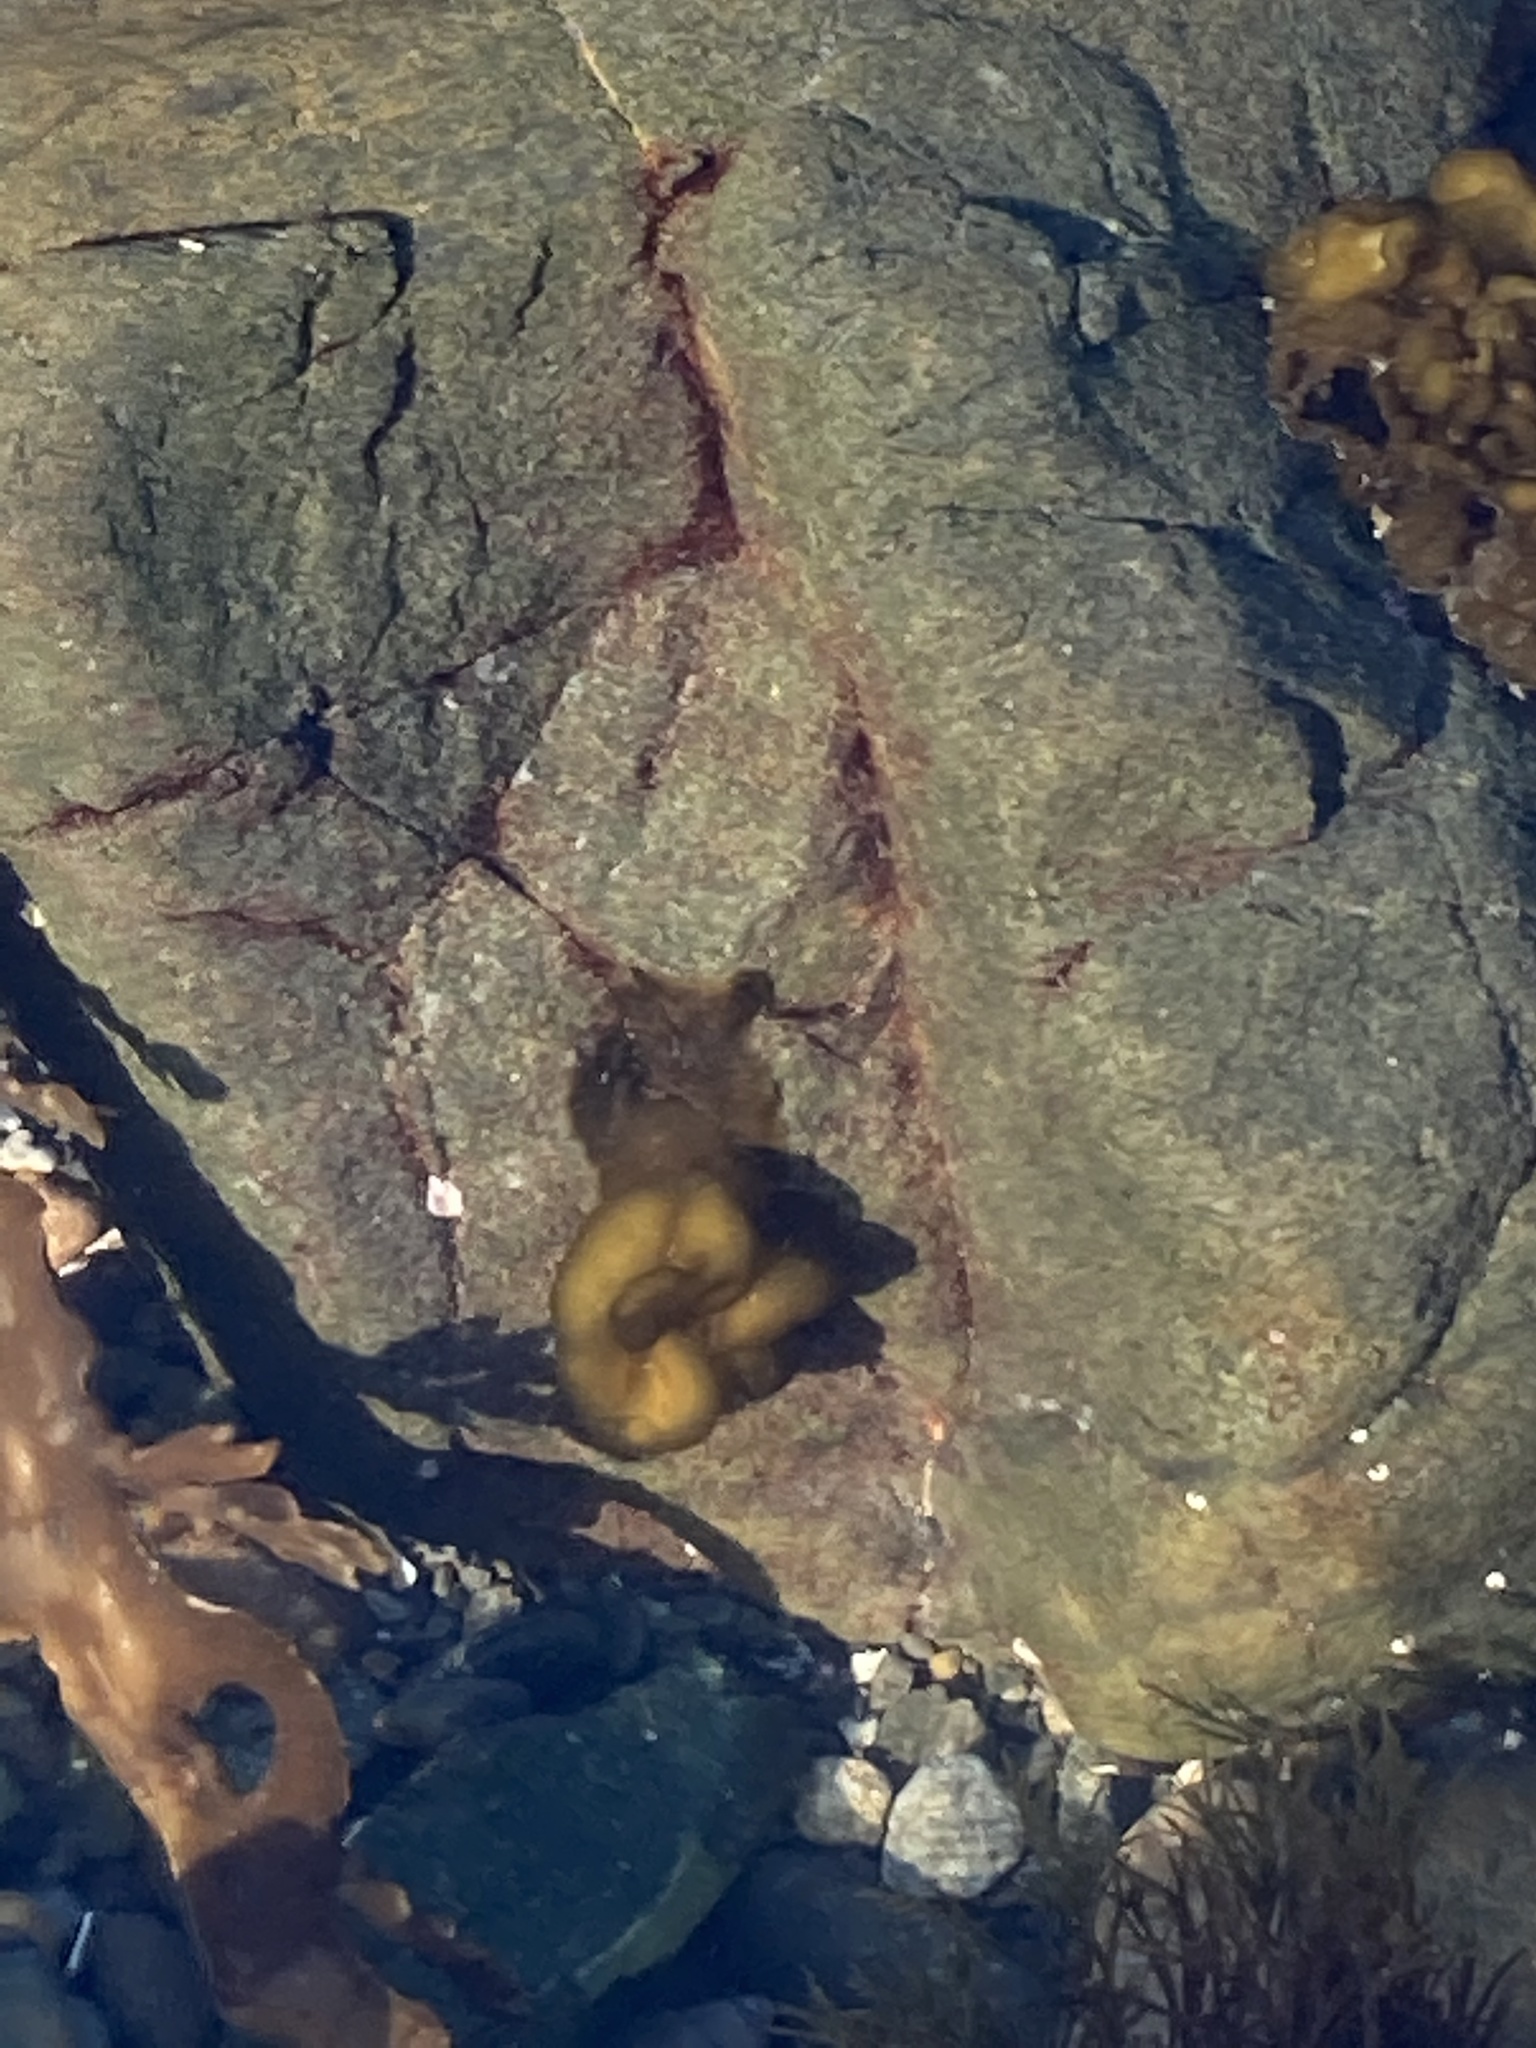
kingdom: Chromista
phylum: Ochrophyta
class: Phaeophyceae
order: Scytosiphonales
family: Scytosiphonaceae
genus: Colpomenia
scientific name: Colpomenia sinuosa
